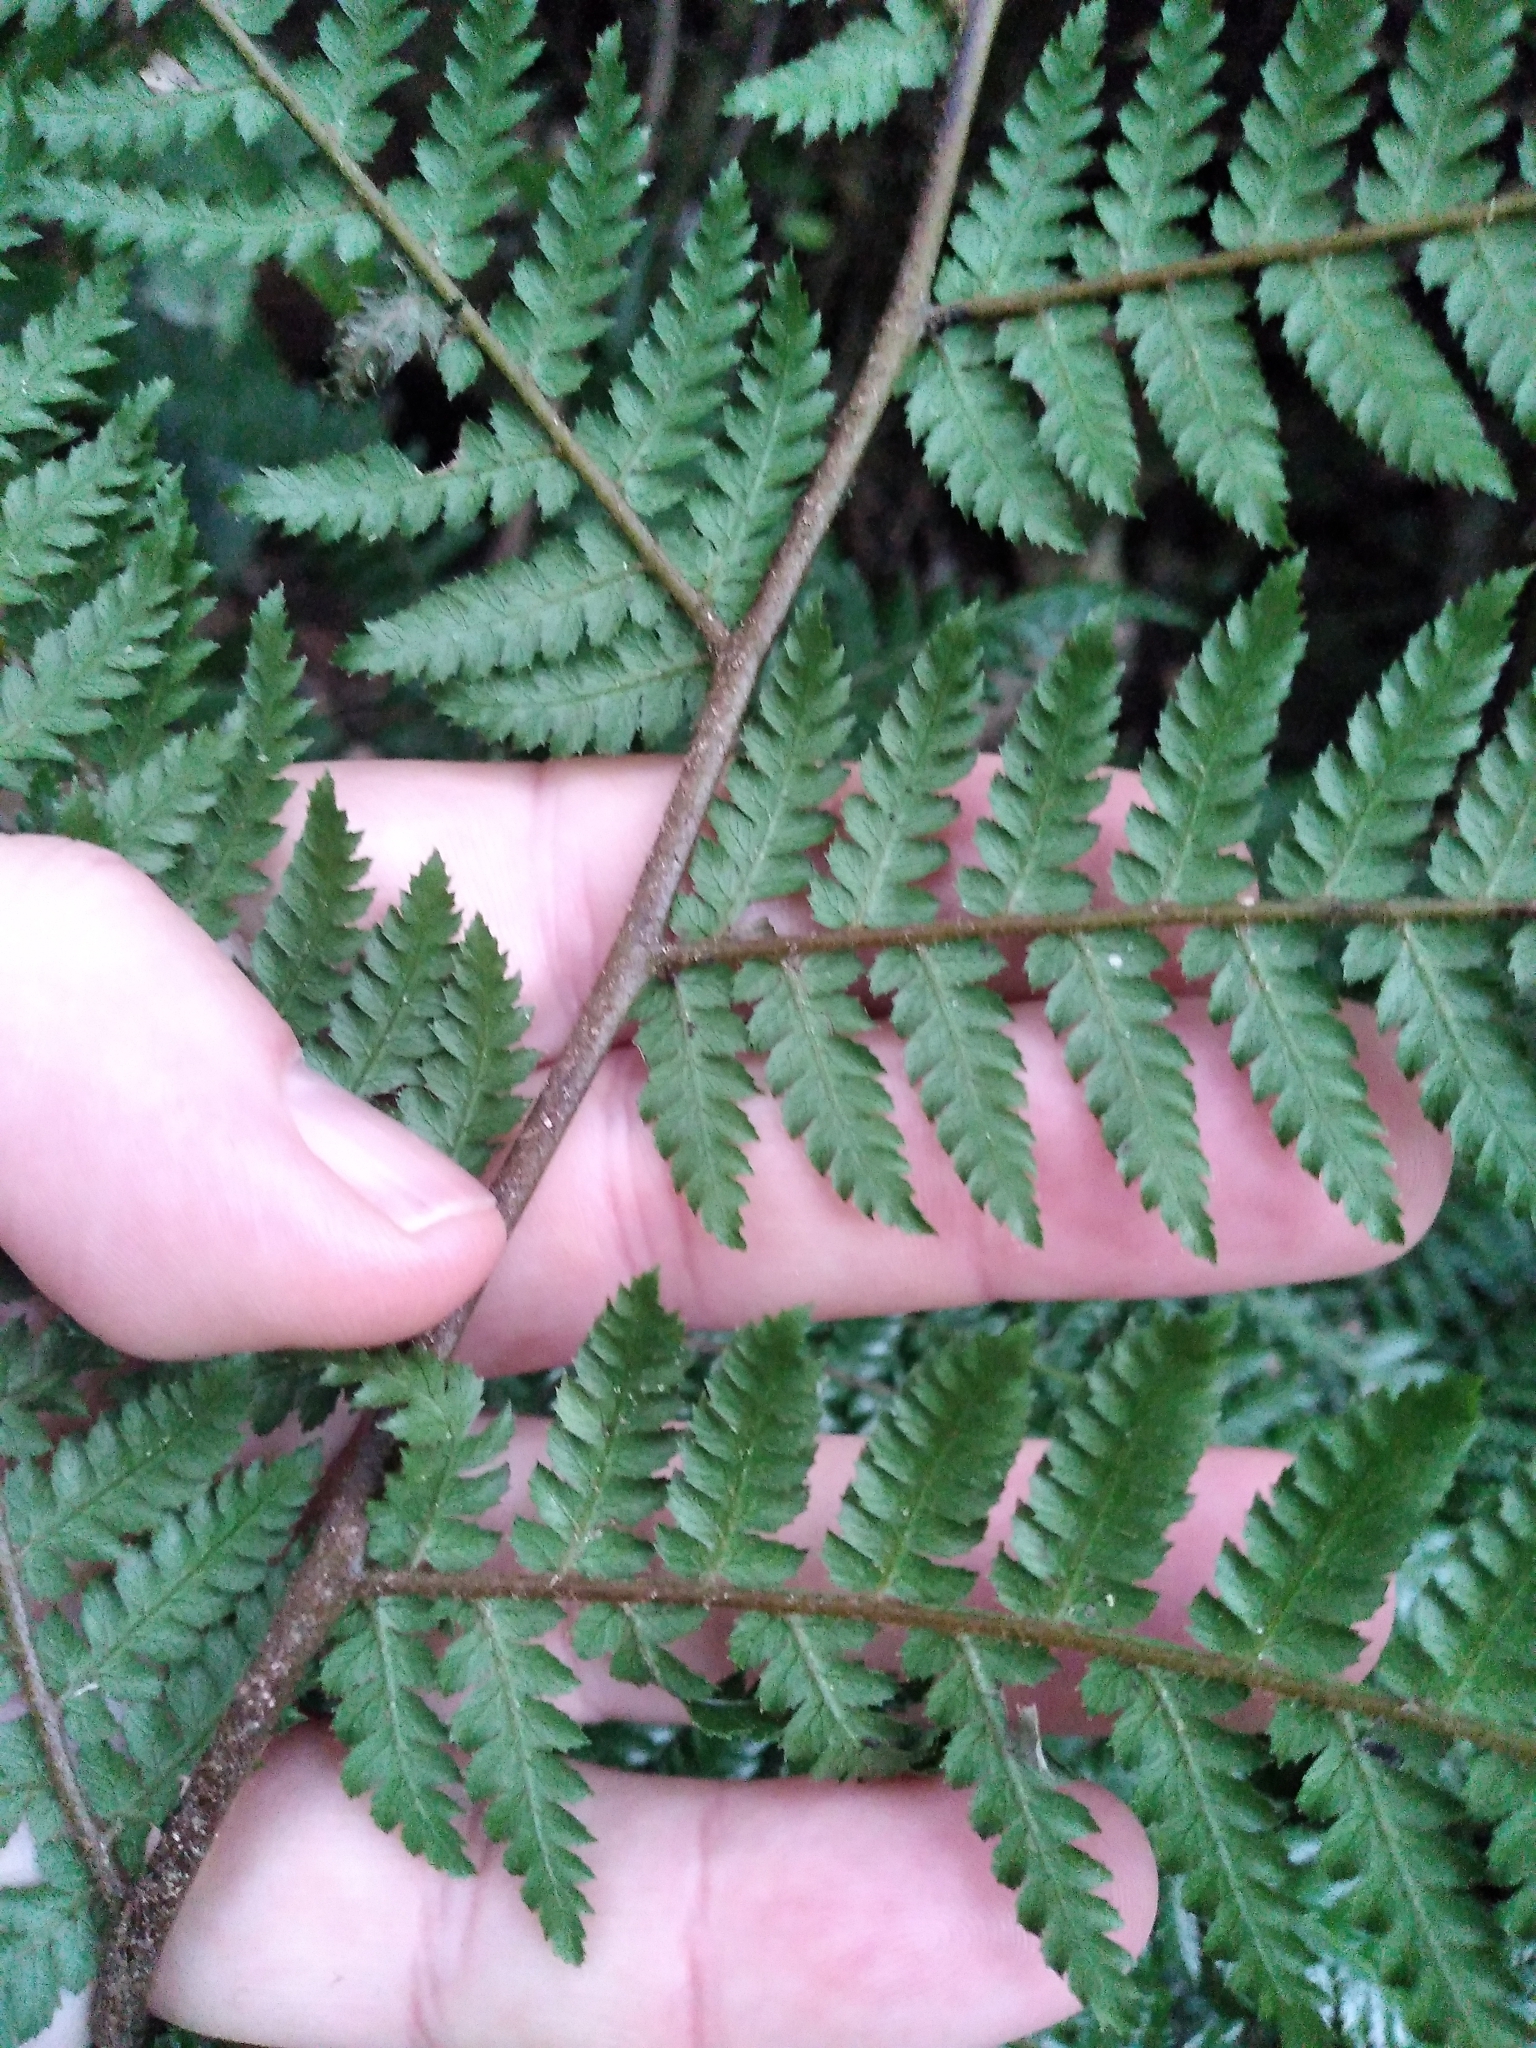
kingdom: Plantae
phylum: Tracheophyta
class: Polypodiopsida
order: Cyatheales
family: Dicksoniaceae
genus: Dicksonia
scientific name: Dicksonia fibrosa
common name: Golden tree fern
